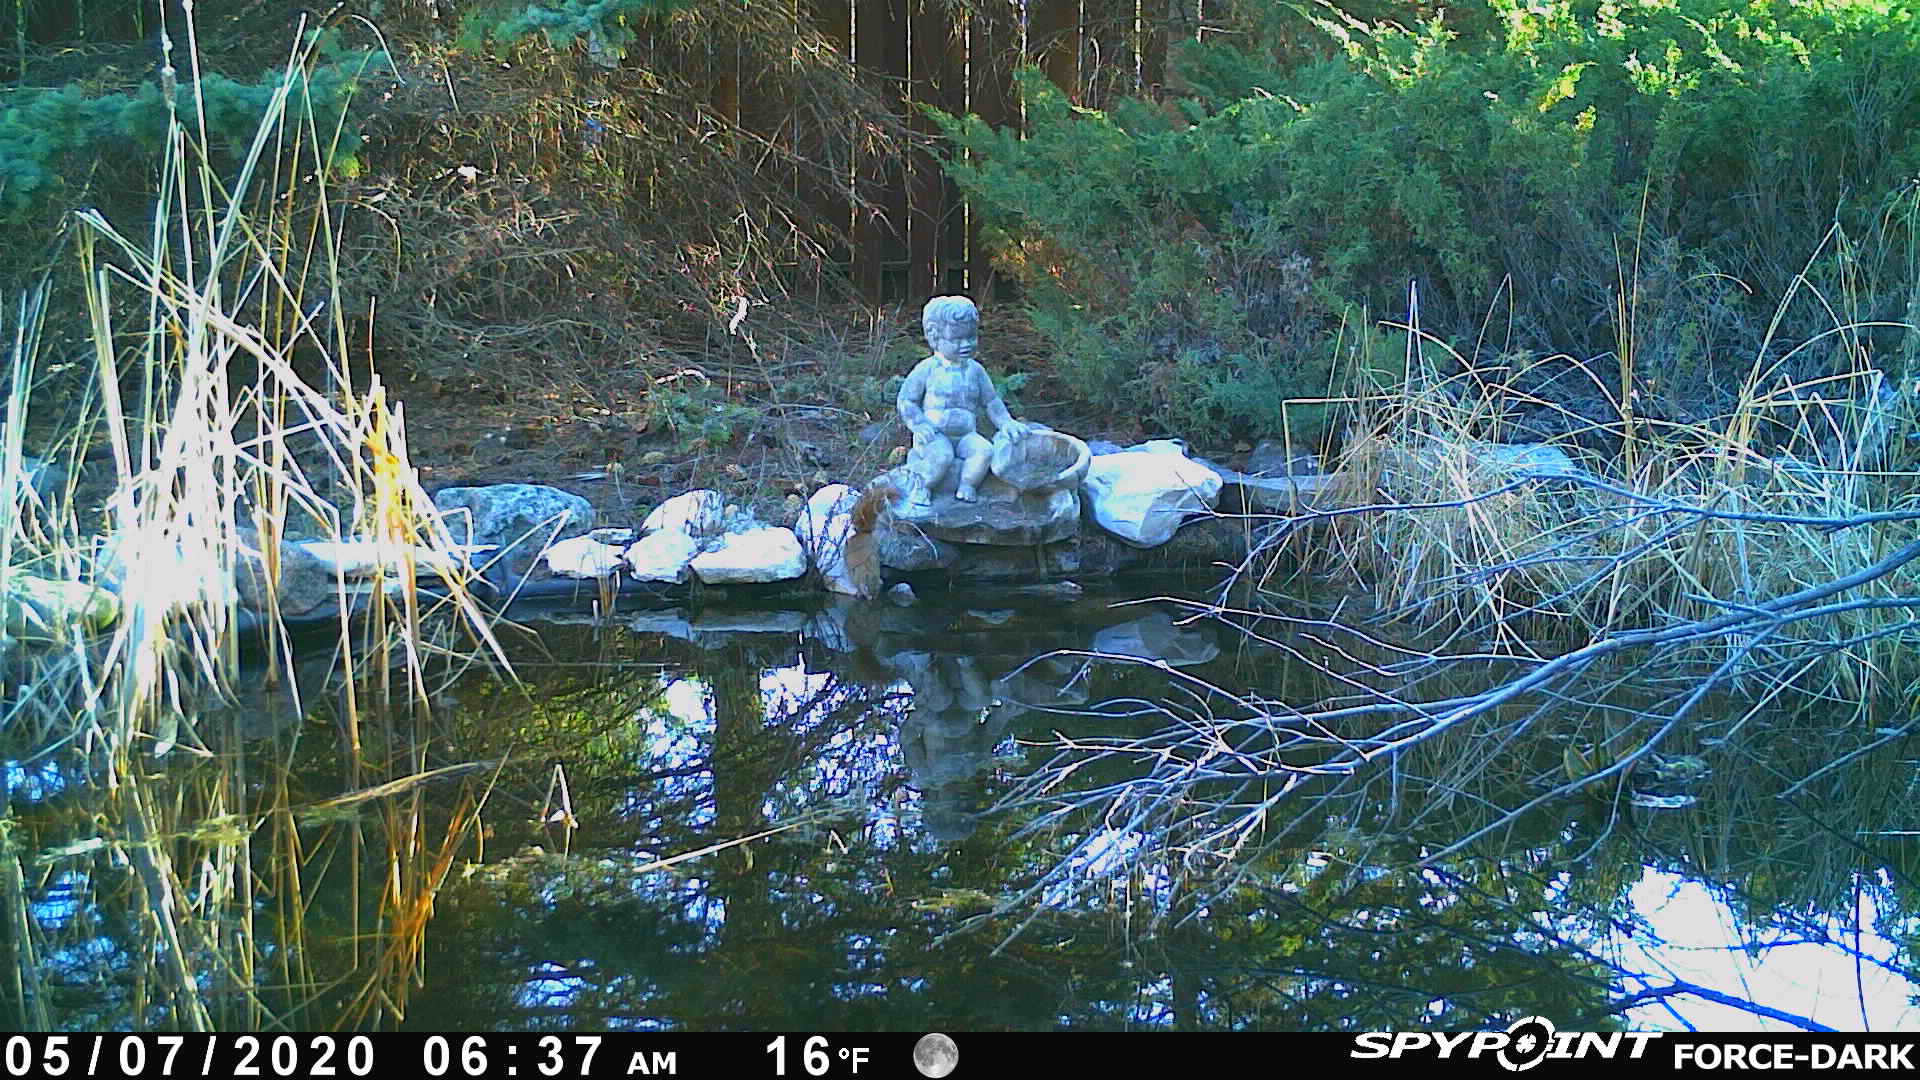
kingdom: Animalia
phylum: Chordata
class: Mammalia
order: Rodentia
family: Sciuridae
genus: Tamiasciurus
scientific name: Tamiasciurus hudsonicus
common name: Red squirrel
